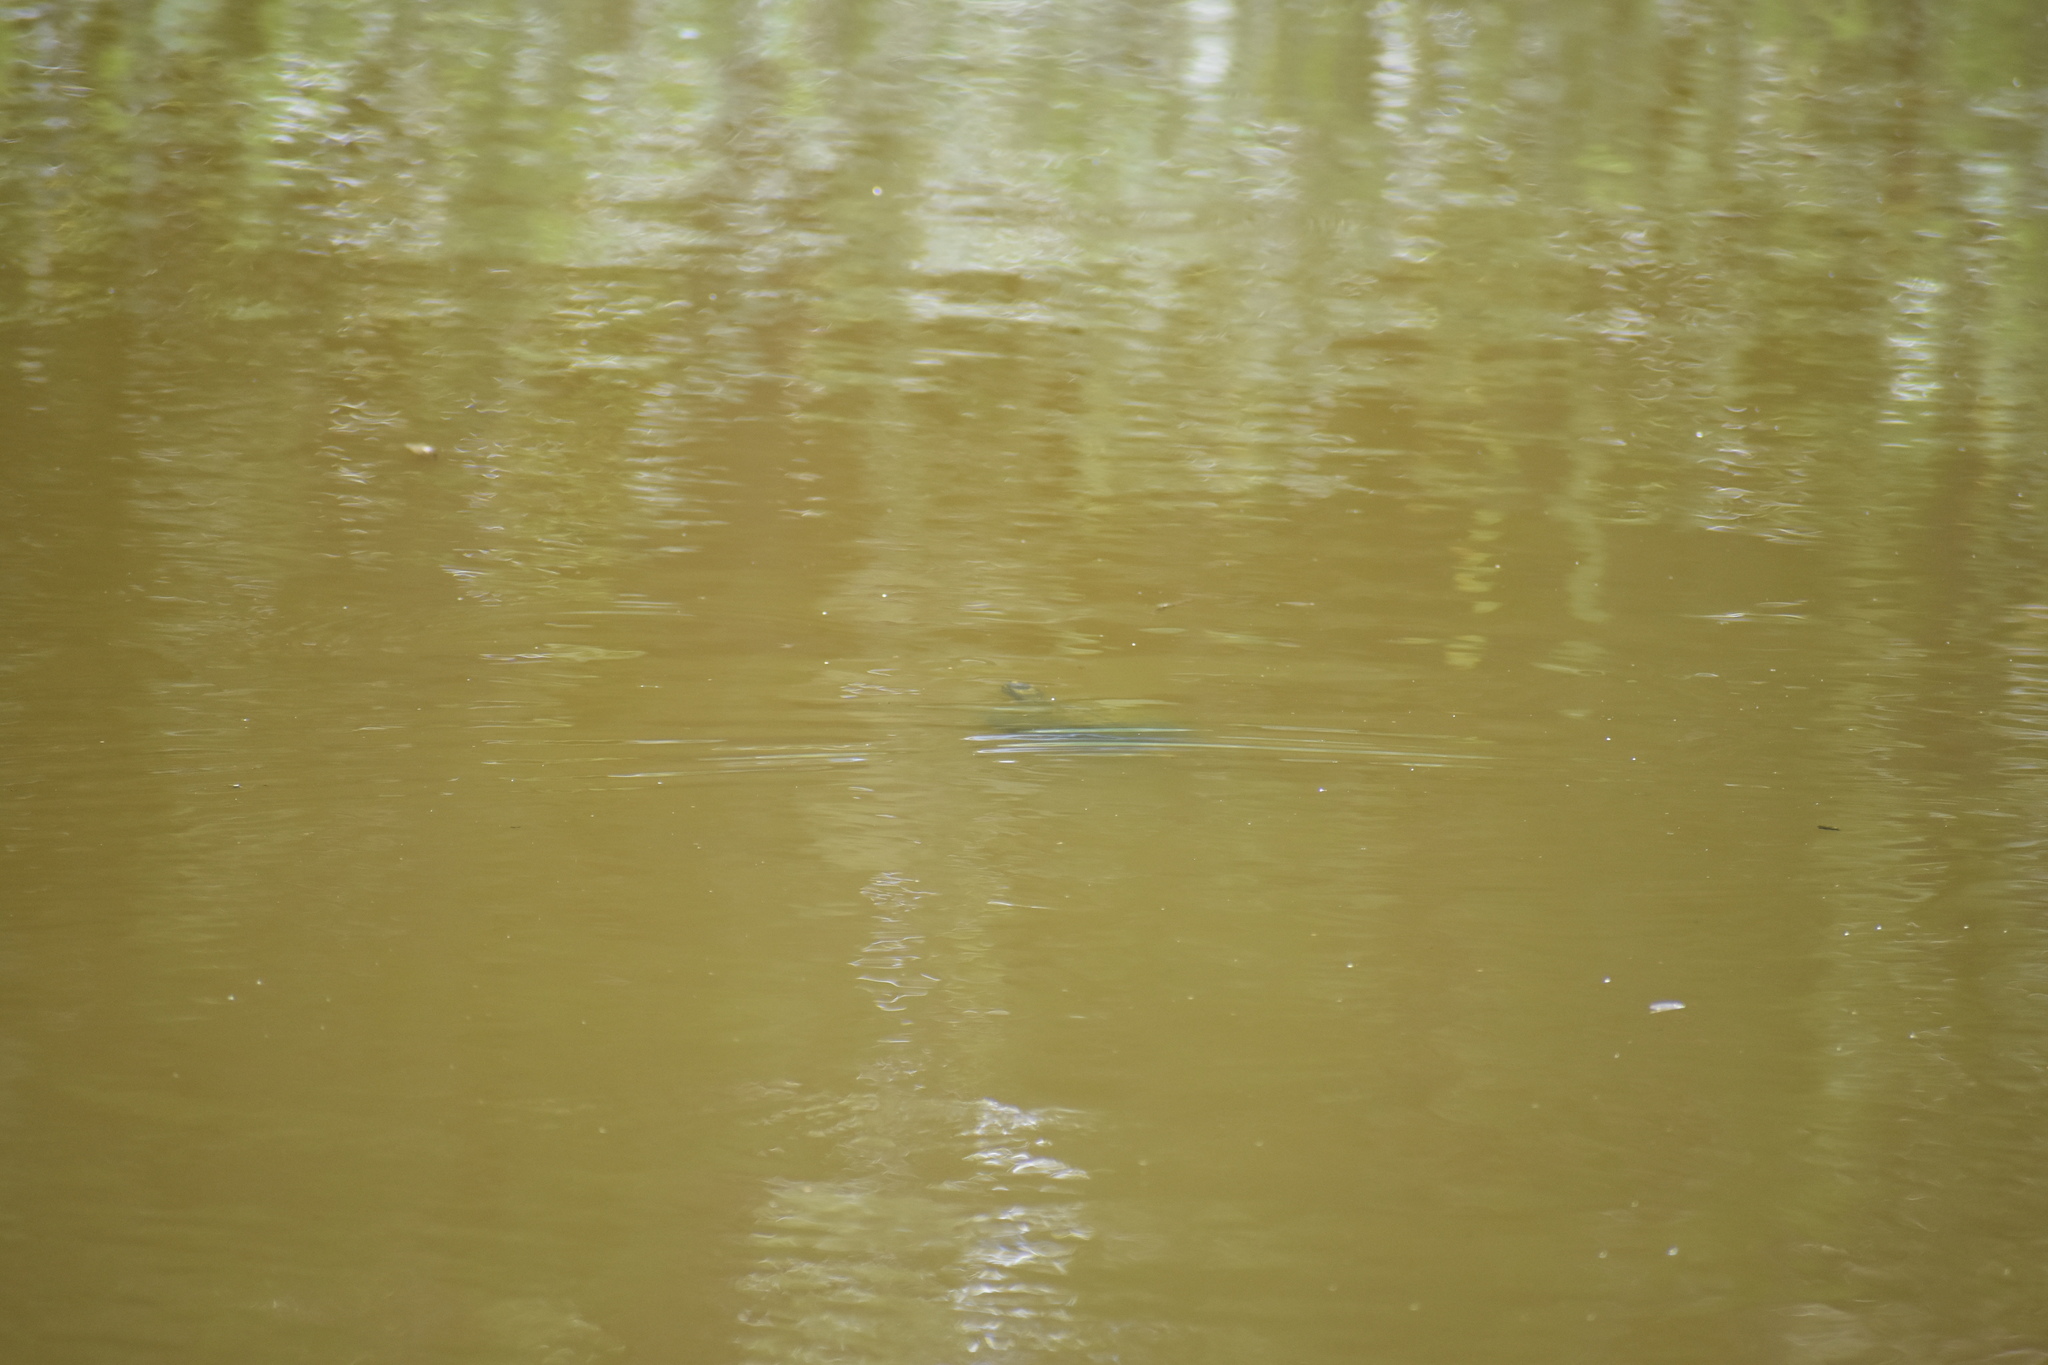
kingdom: Animalia
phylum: Chordata
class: Testudines
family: Emydidae
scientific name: Emydidae
